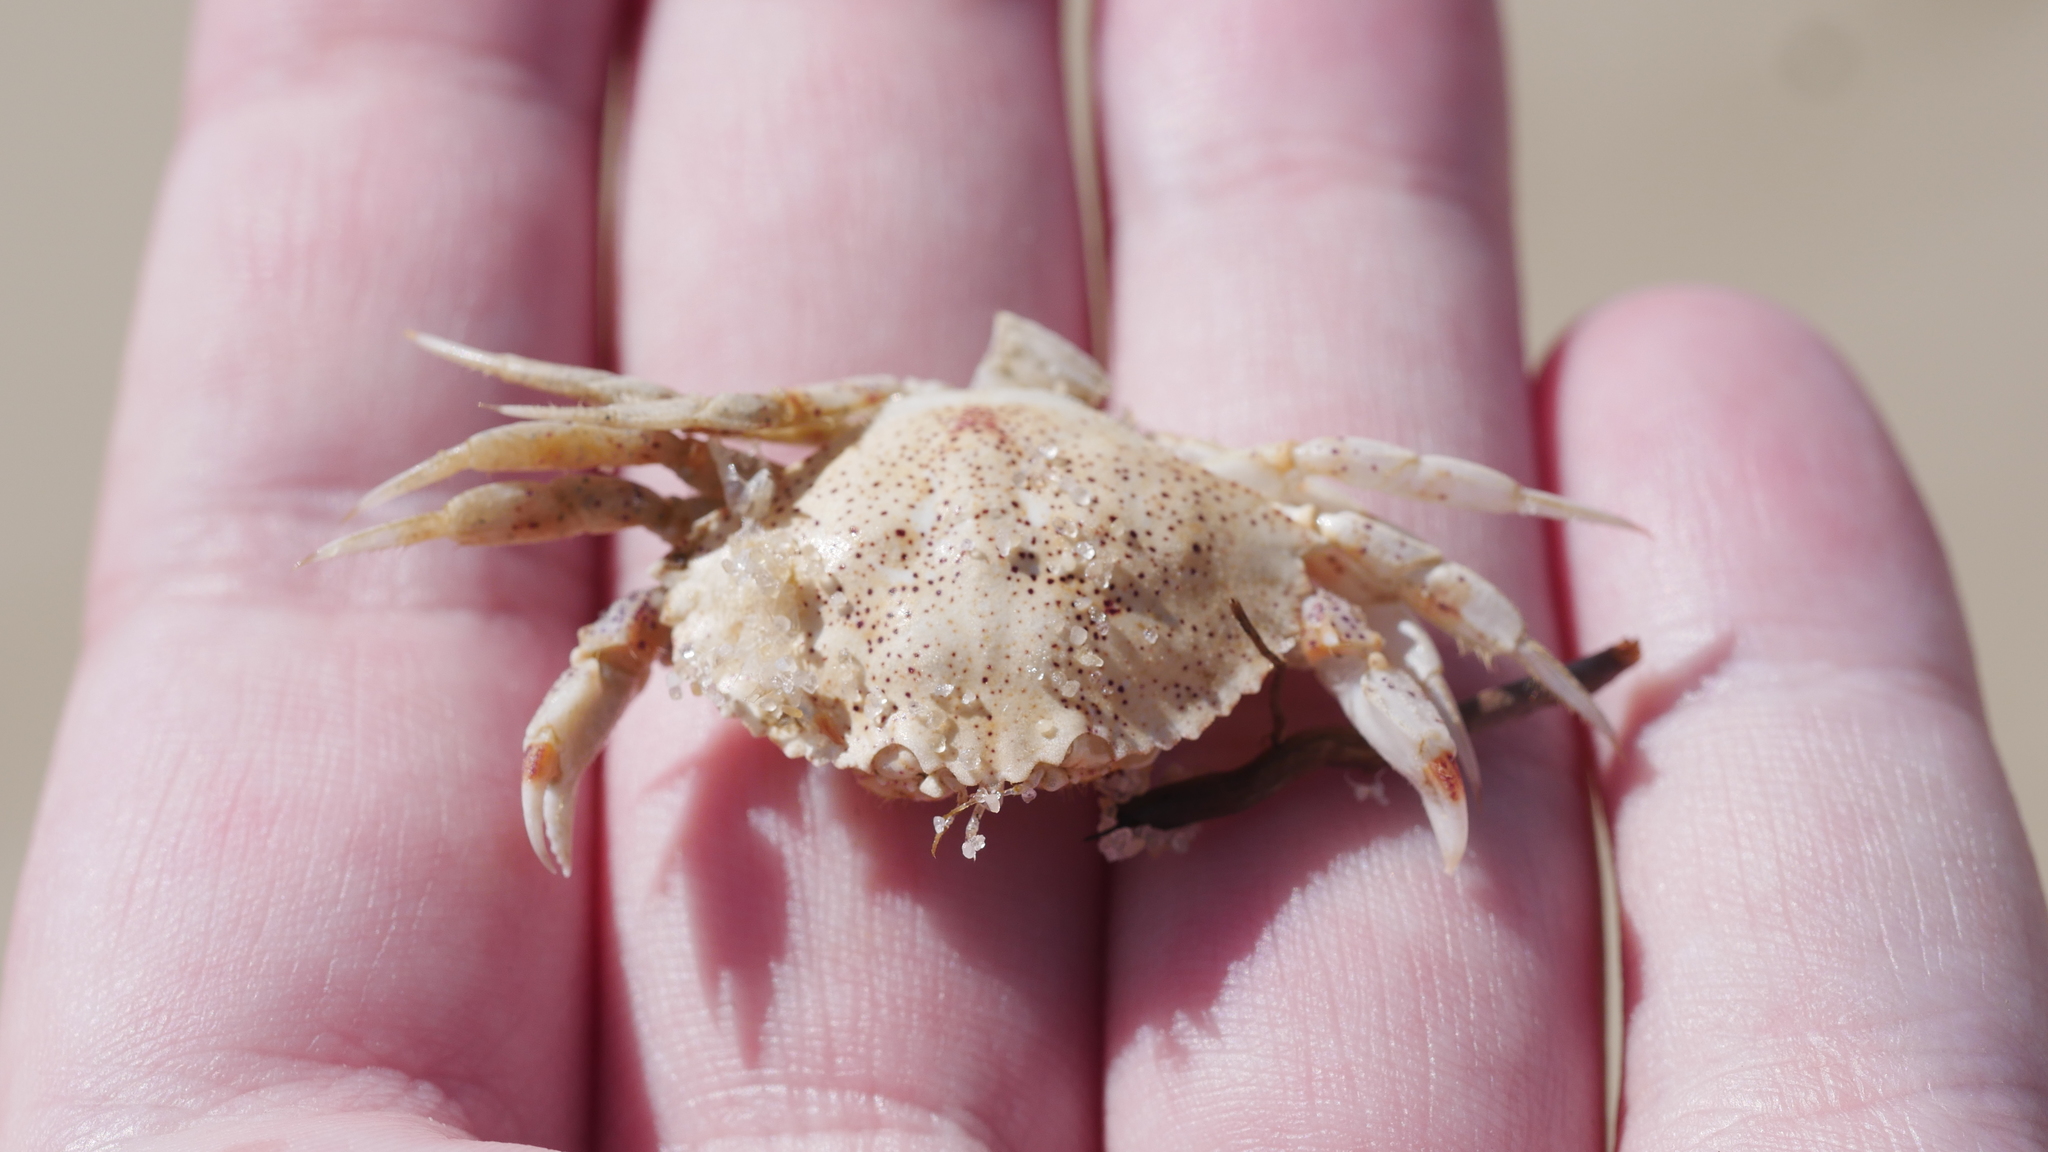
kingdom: Animalia
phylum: Arthropoda
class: Malacostraca
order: Decapoda
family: Cancridae
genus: Cancer
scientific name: Cancer irroratus
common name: Atlantic rock crab
